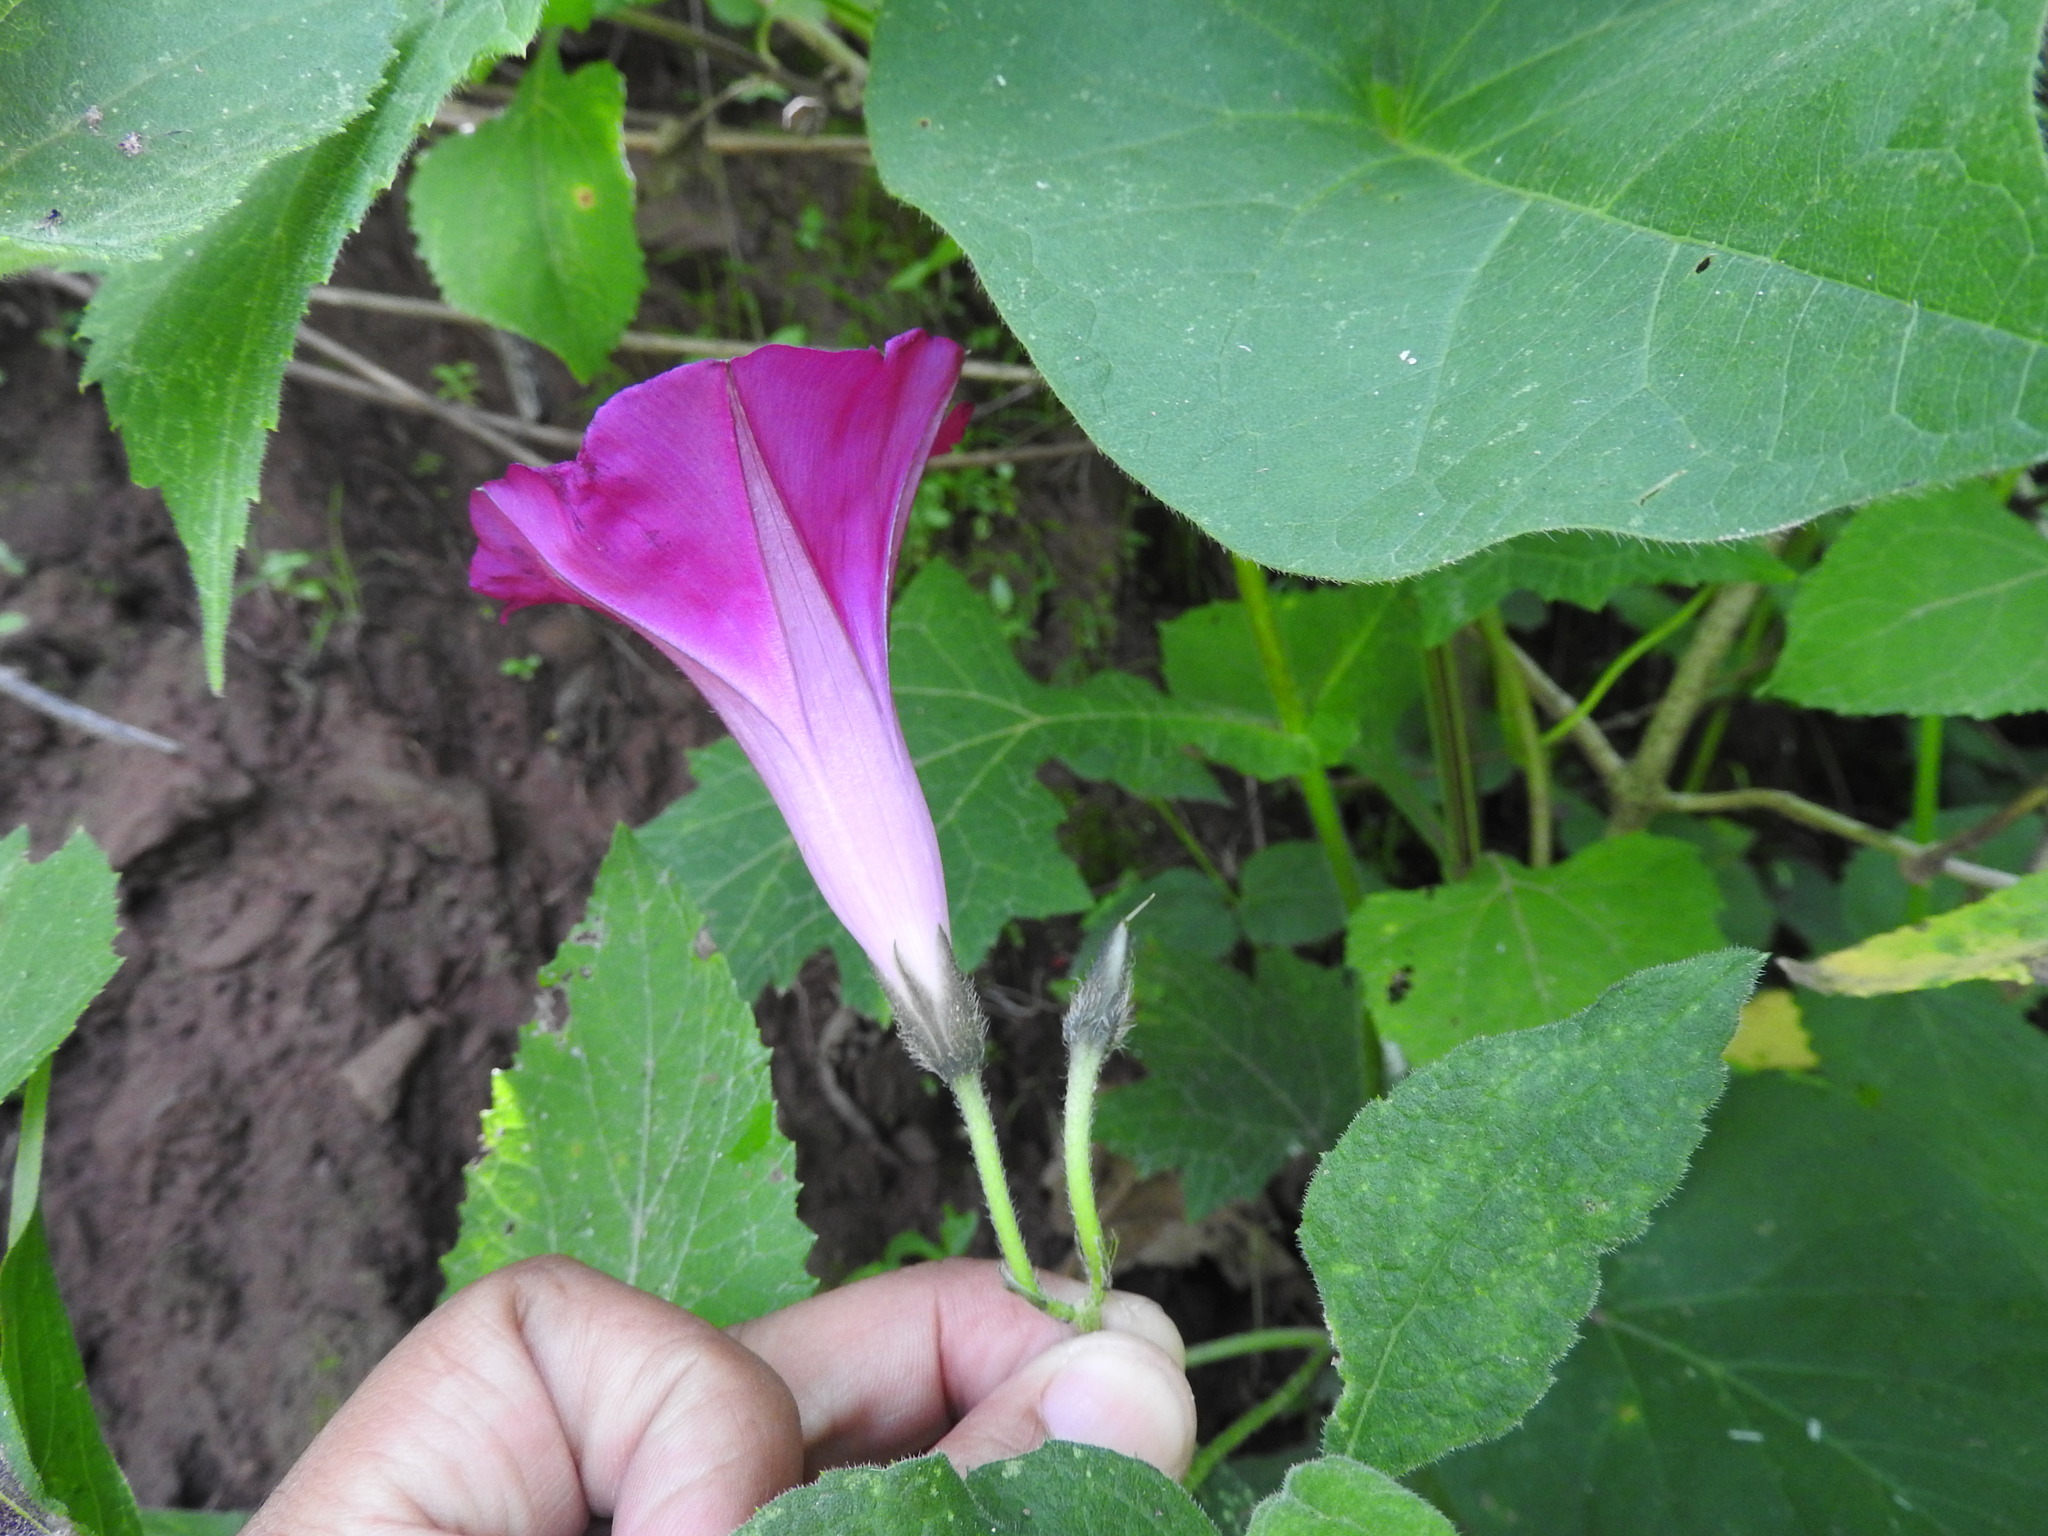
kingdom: Plantae
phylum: Tracheophyta
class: Magnoliopsida
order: Solanales
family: Convolvulaceae
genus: Ipomoea
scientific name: Ipomoea orizabensis
